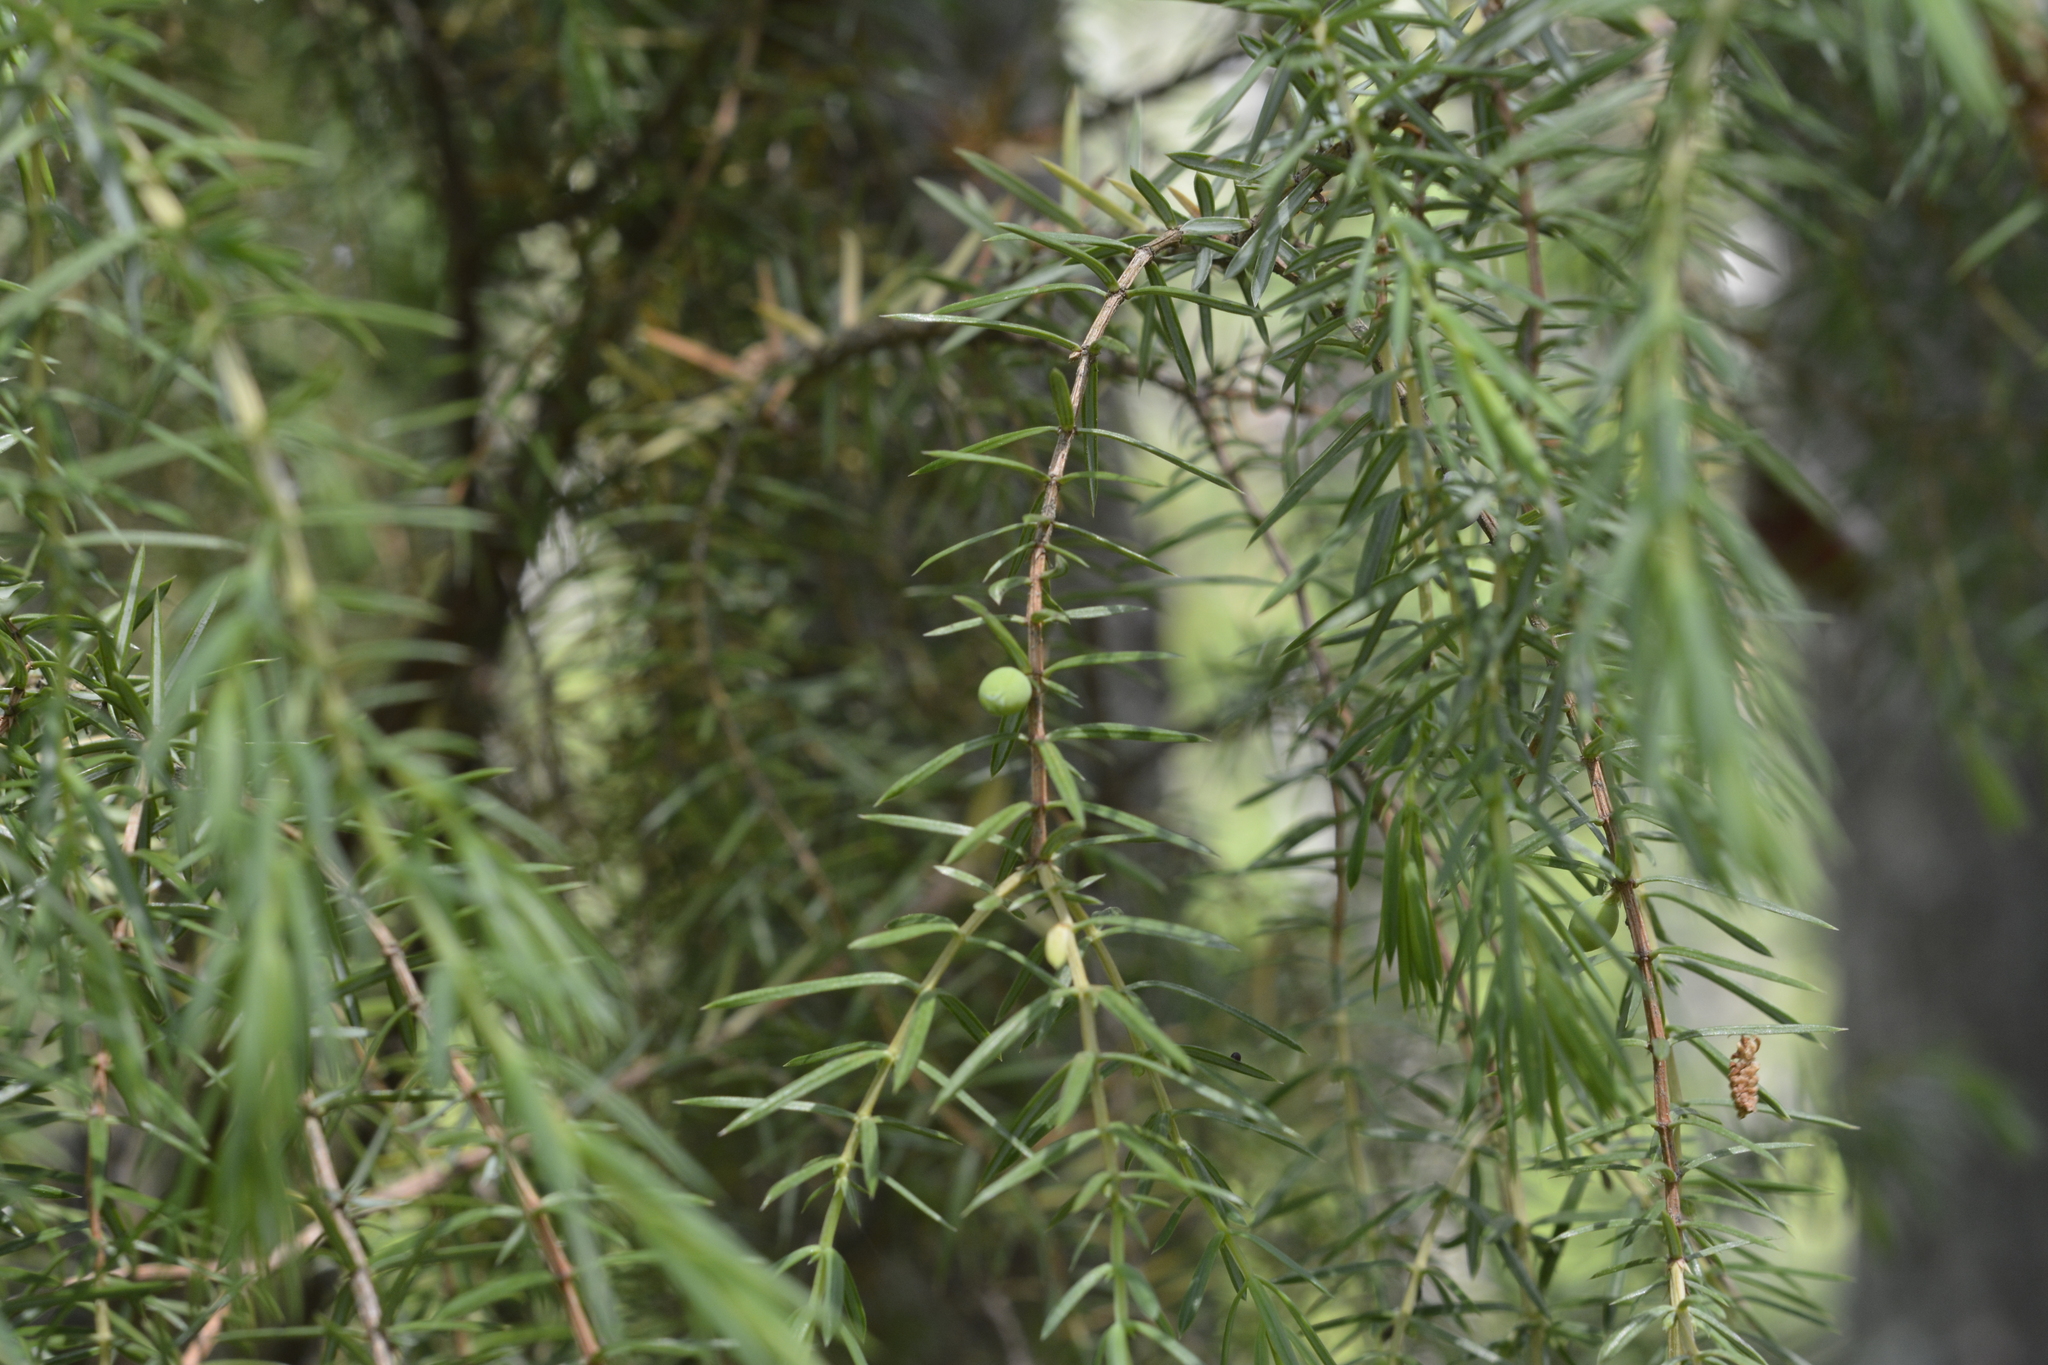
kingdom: Plantae
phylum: Tracheophyta
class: Pinopsida
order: Pinales
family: Cupressaceae
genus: Juniperus
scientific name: Juniperus communis
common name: Common juniper
